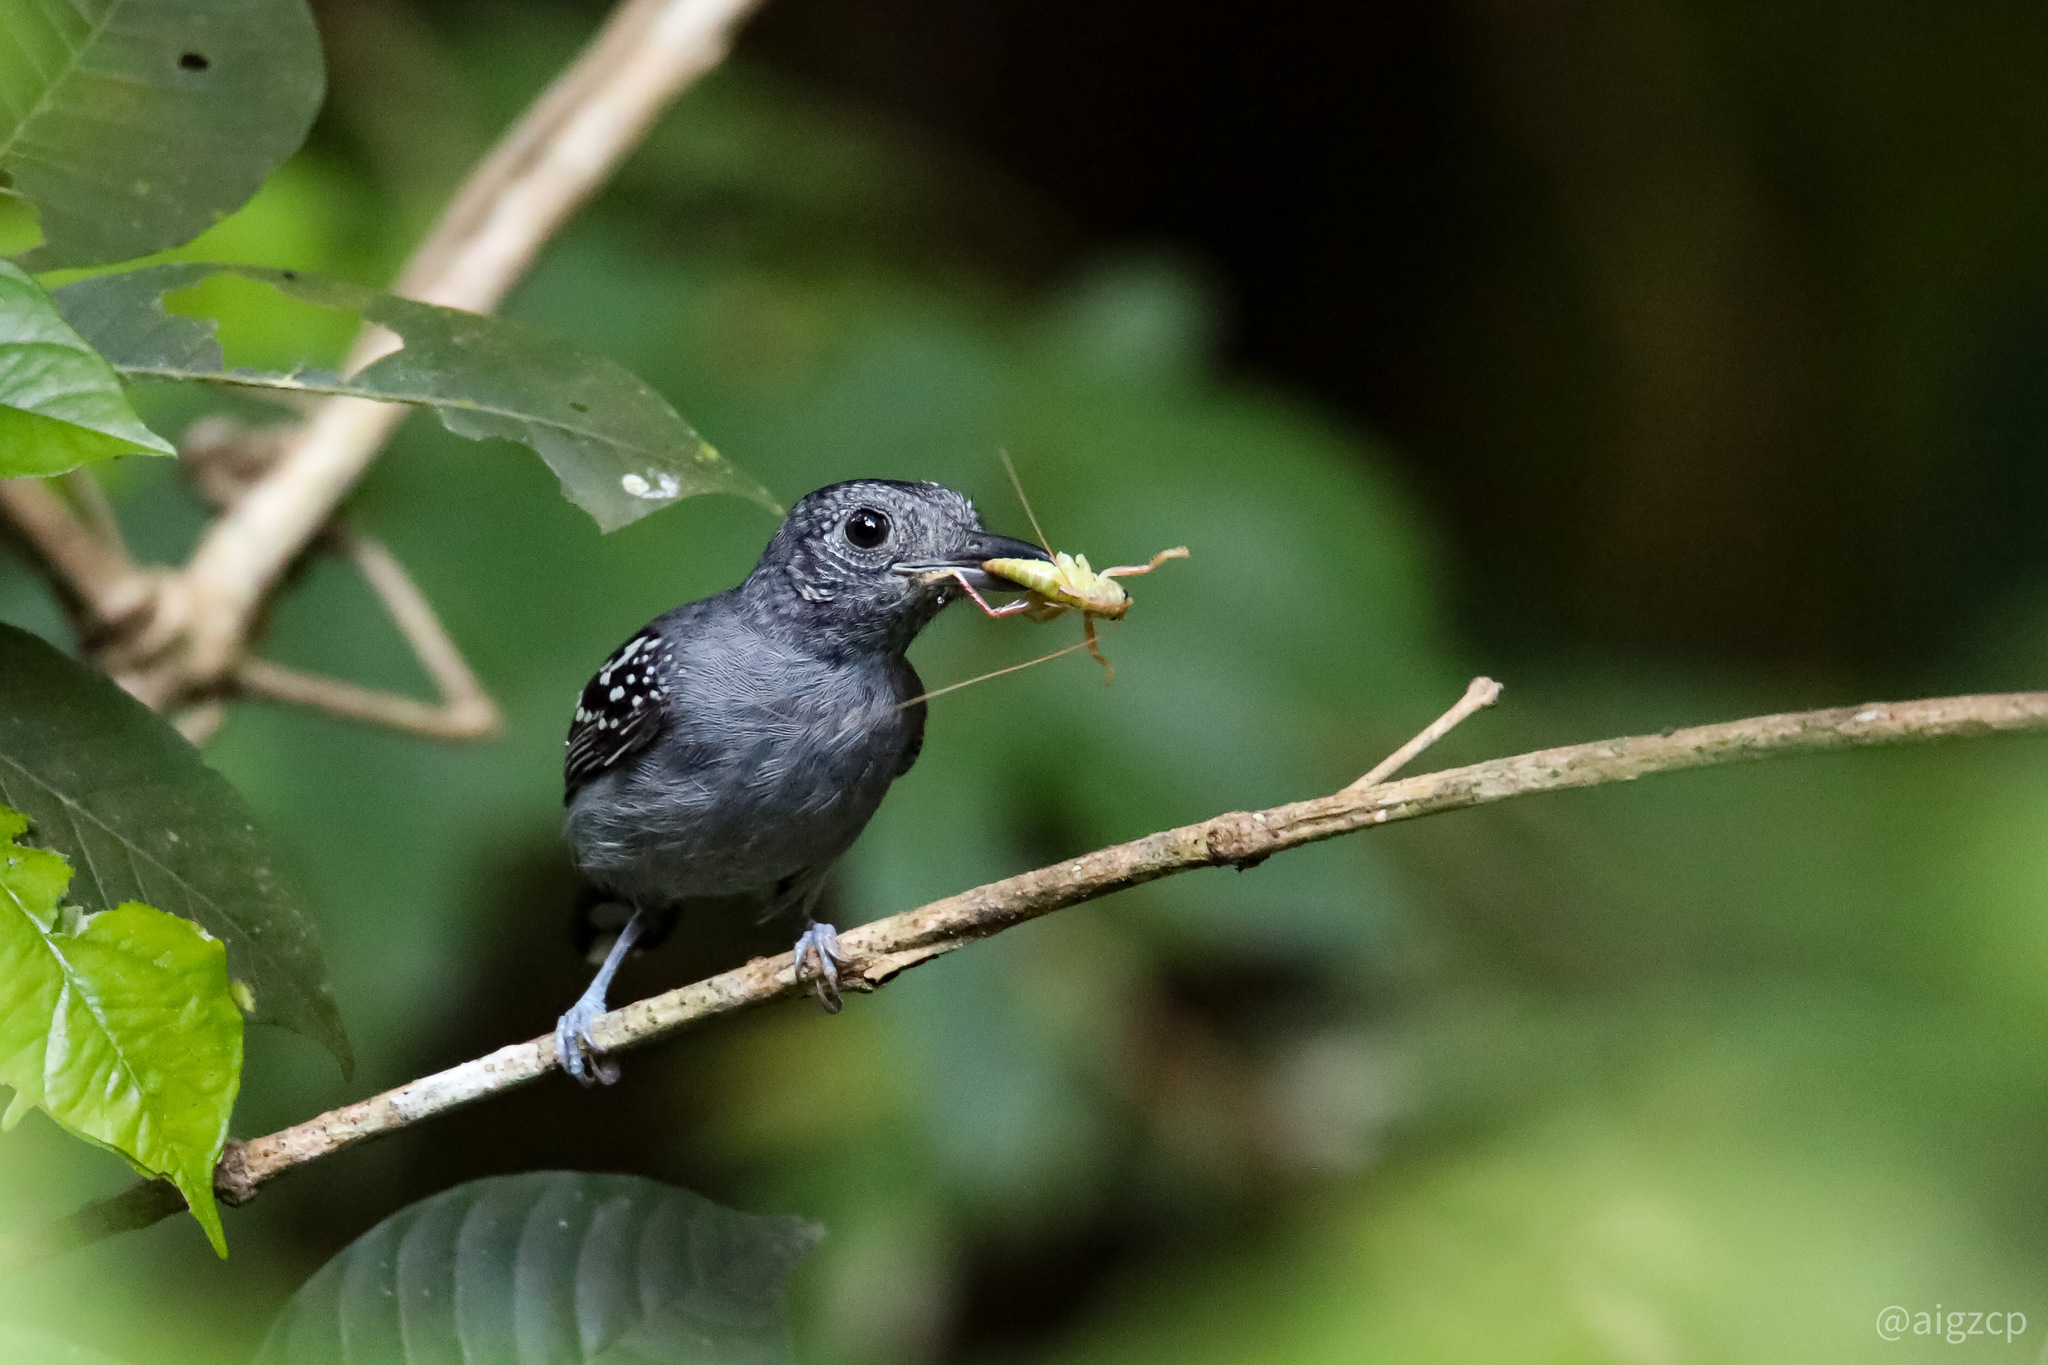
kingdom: Animalia
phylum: Chordata
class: Aves
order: Passeriformes
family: Thamnophilidae
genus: Thamnophilus
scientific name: Thamnophilus atrinucha
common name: Black-crowned antshrike
